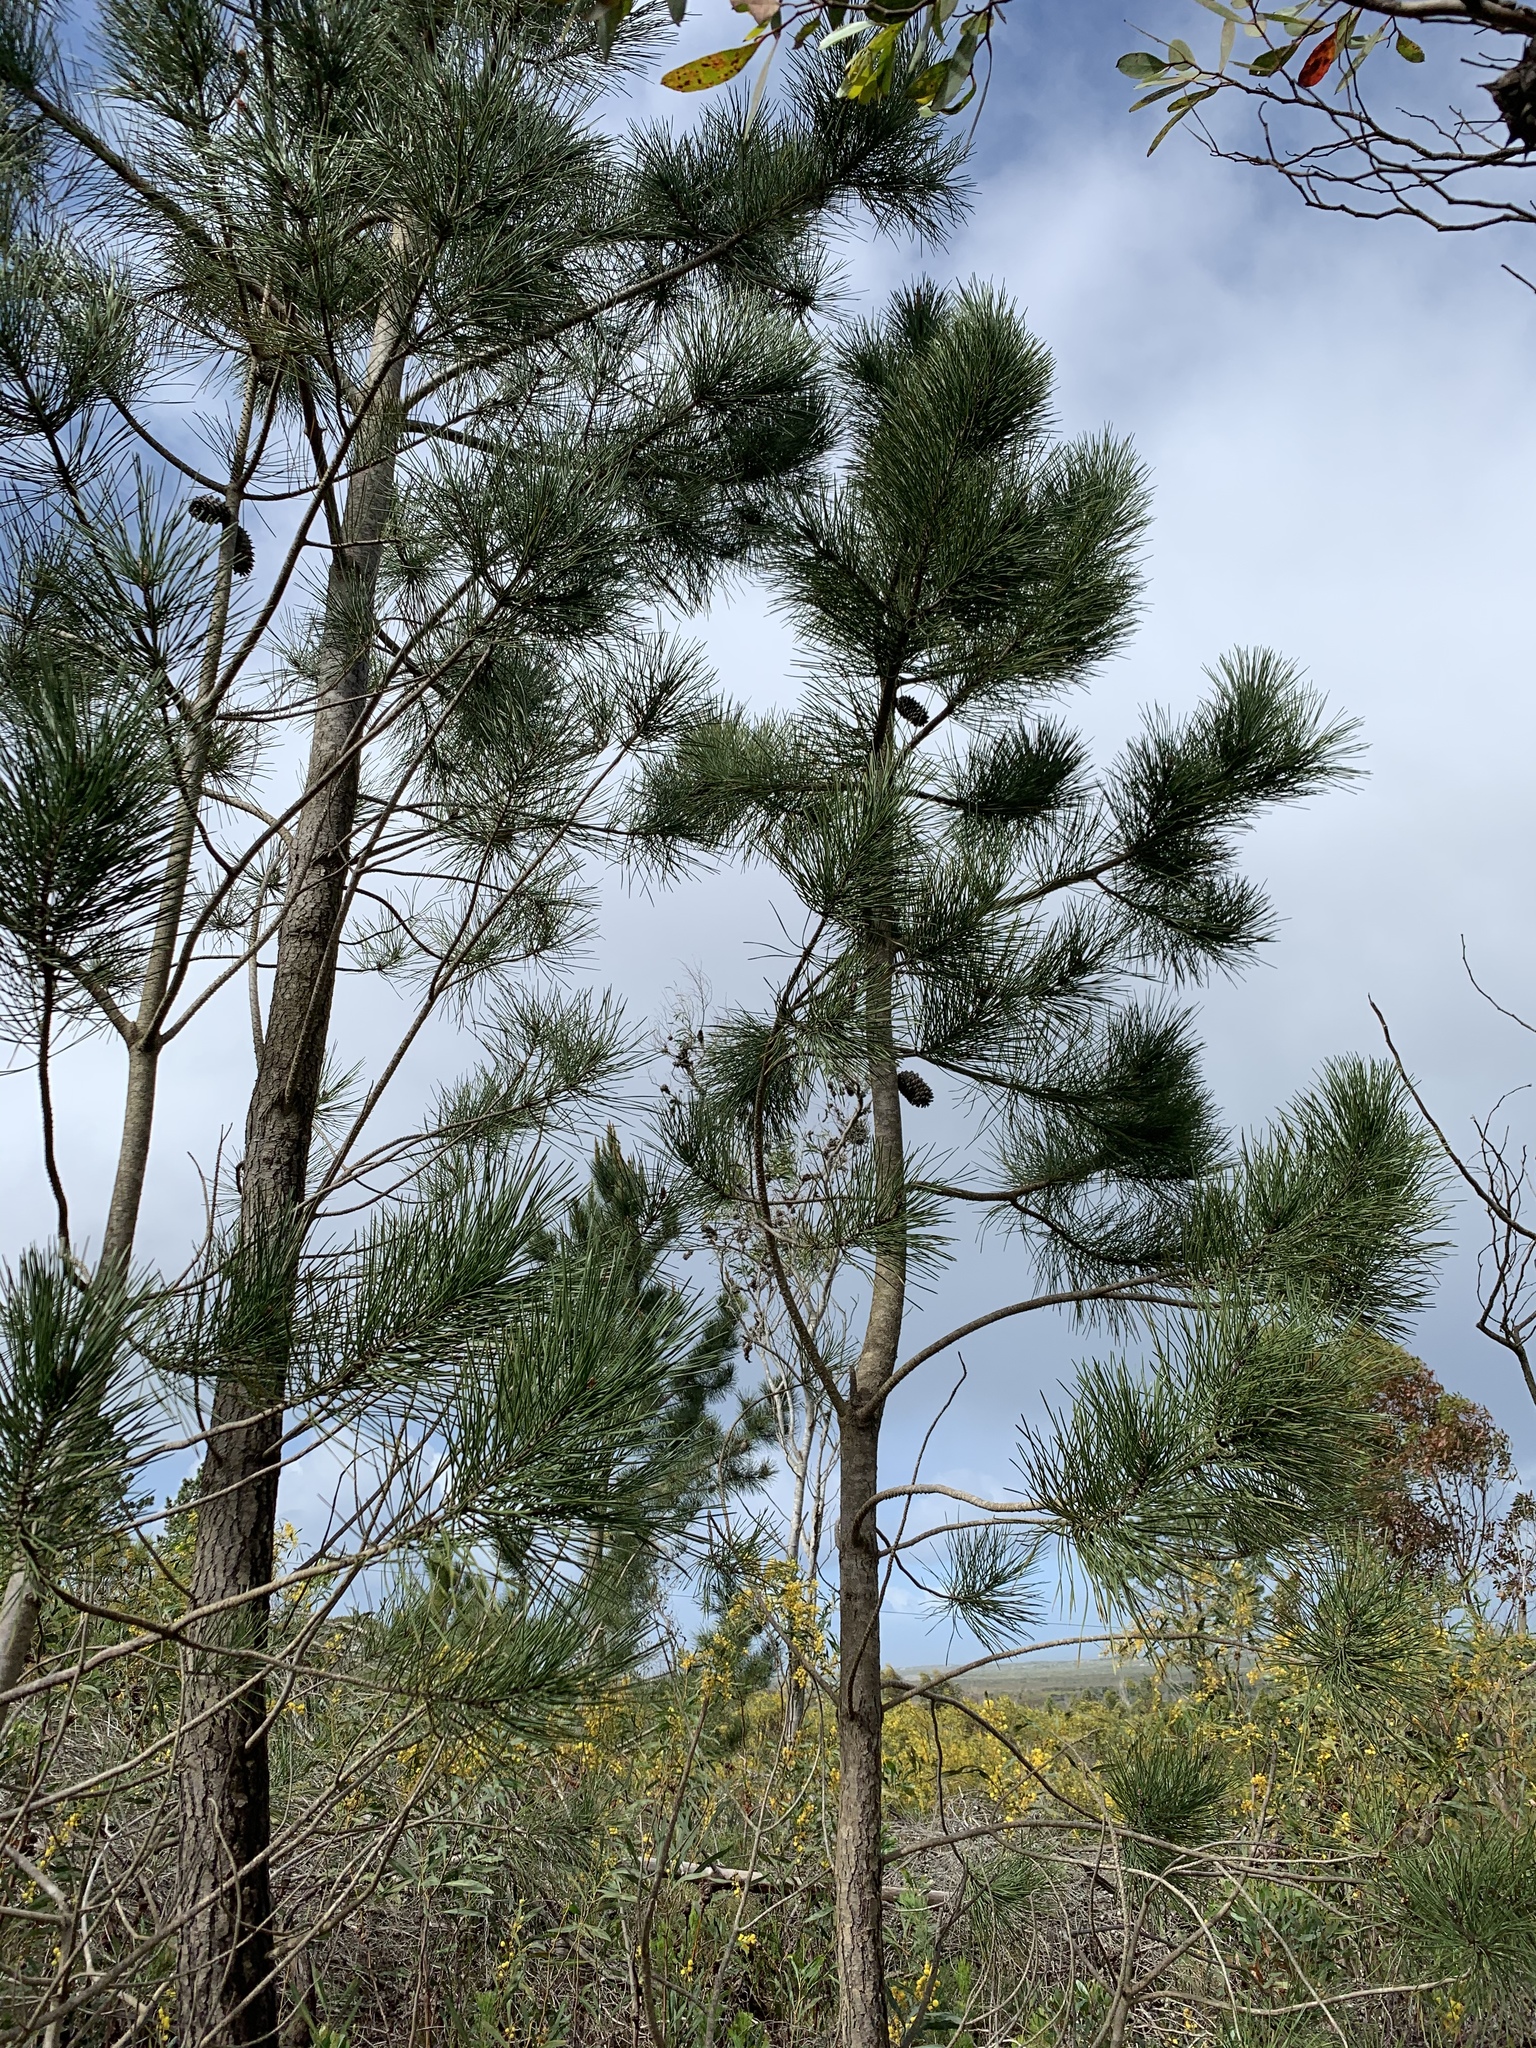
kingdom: Plantae
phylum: Tracheophyta
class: Pinopsida
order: Pinales
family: Pinaceae
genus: Pinus
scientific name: Pinus pinaster
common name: Maritime pine
